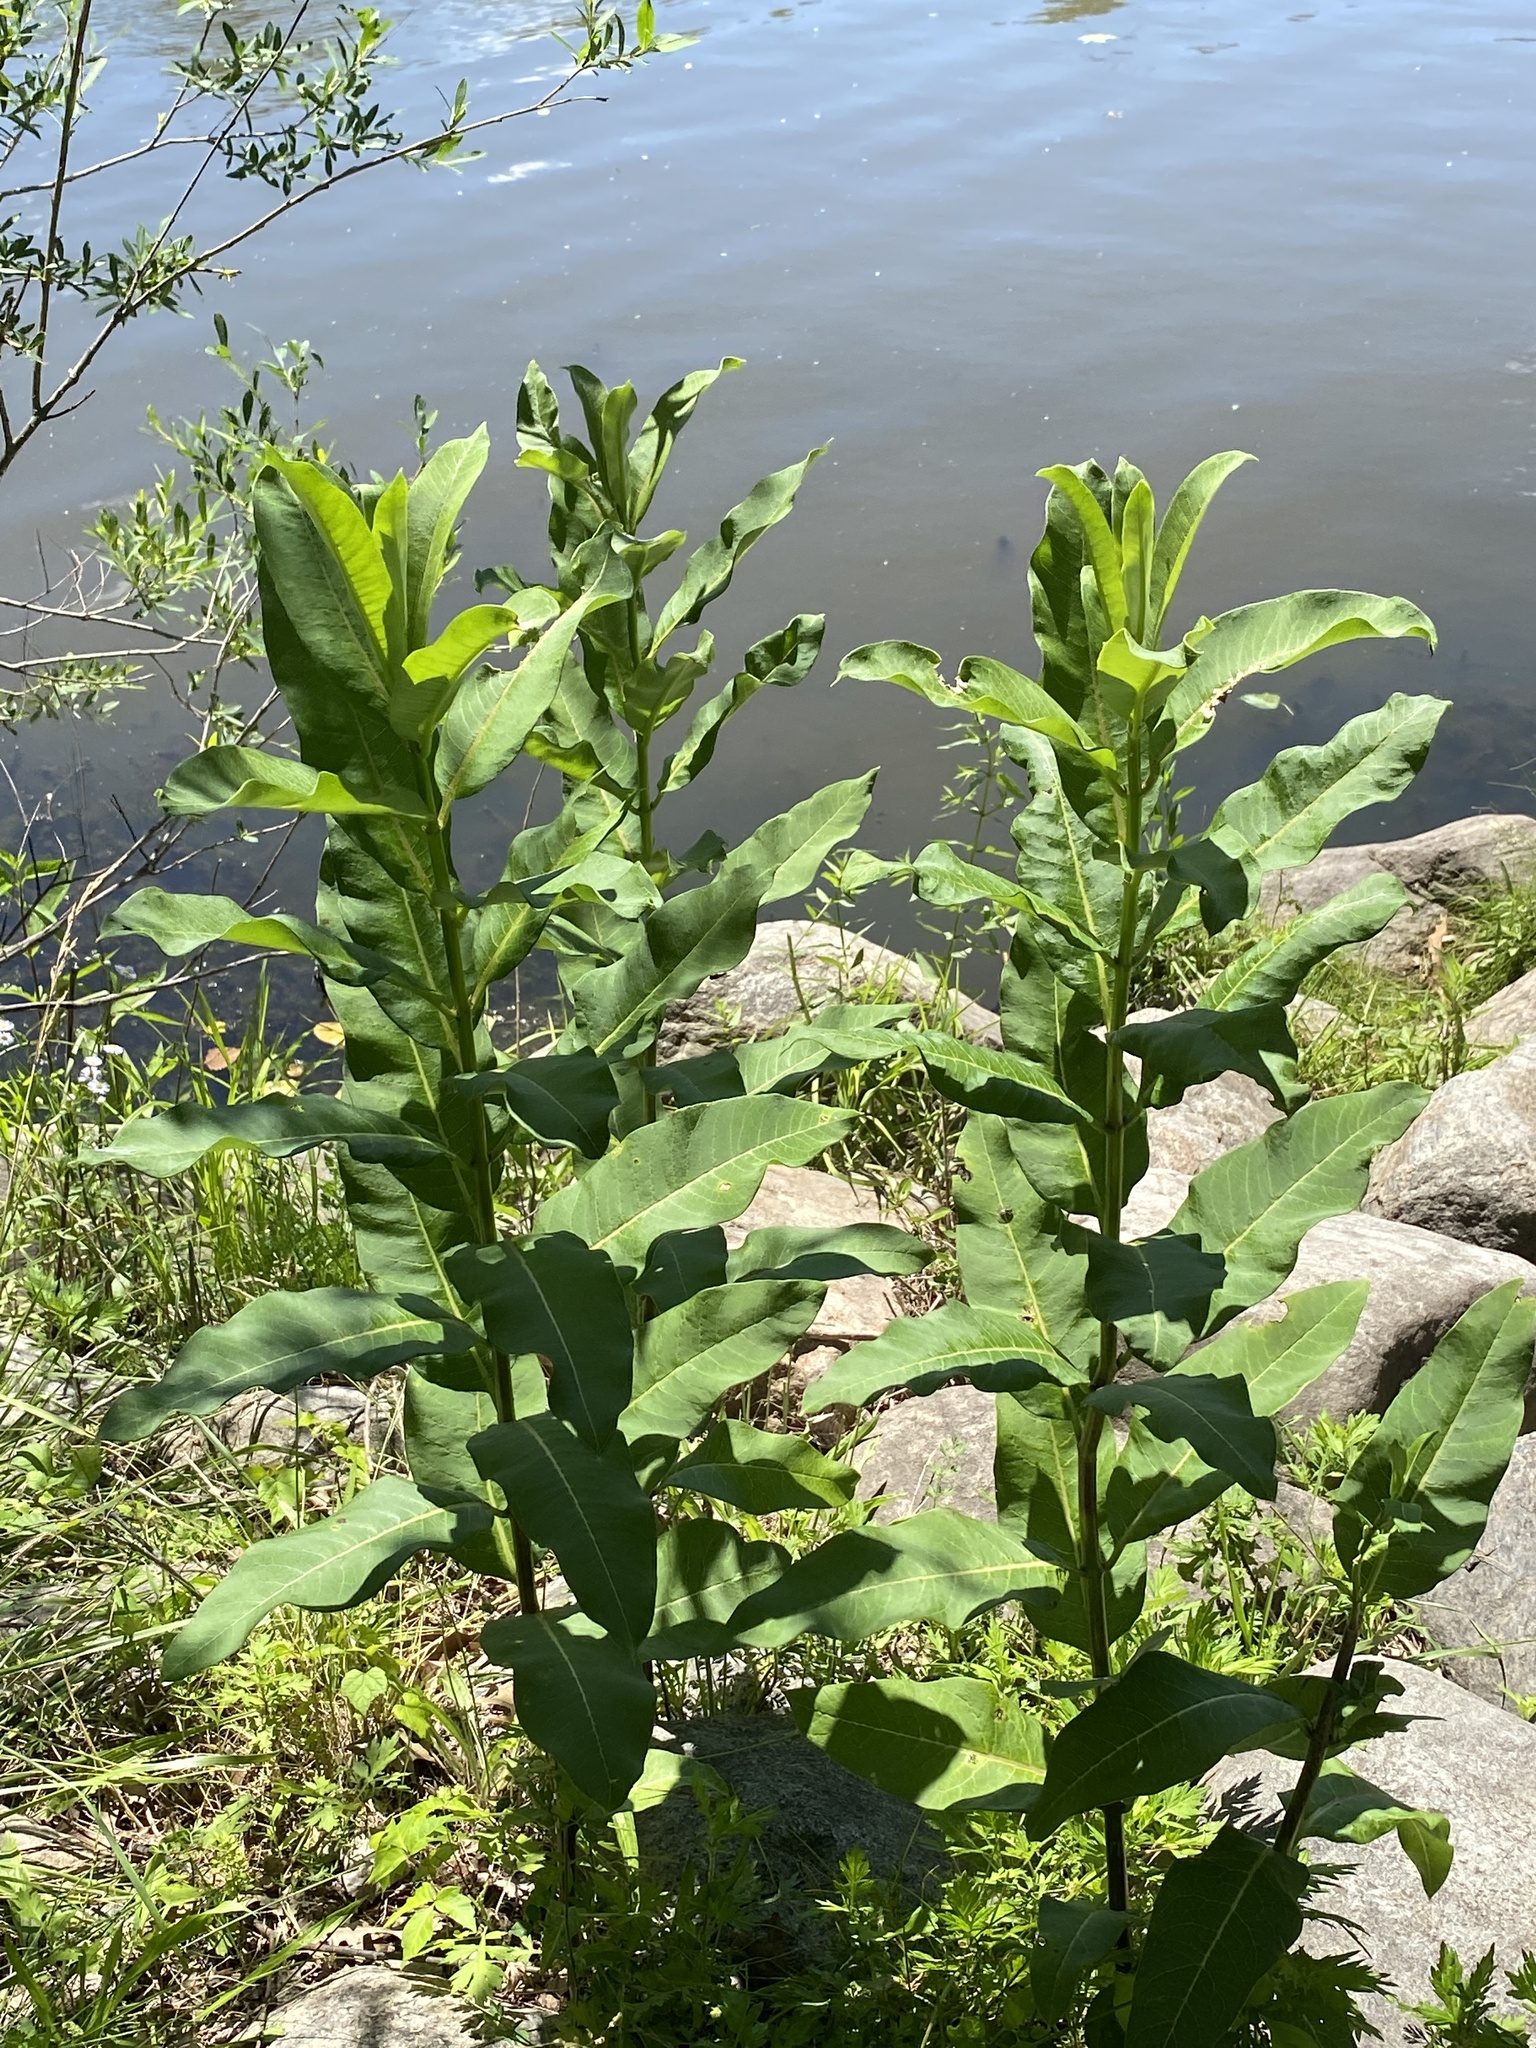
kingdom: Plantae
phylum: Tracheophyta
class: Magnoliopsida
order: Gentianales
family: Apocynaceae
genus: Asclepias
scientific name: Asclepias syriaca
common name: Common milkweed
